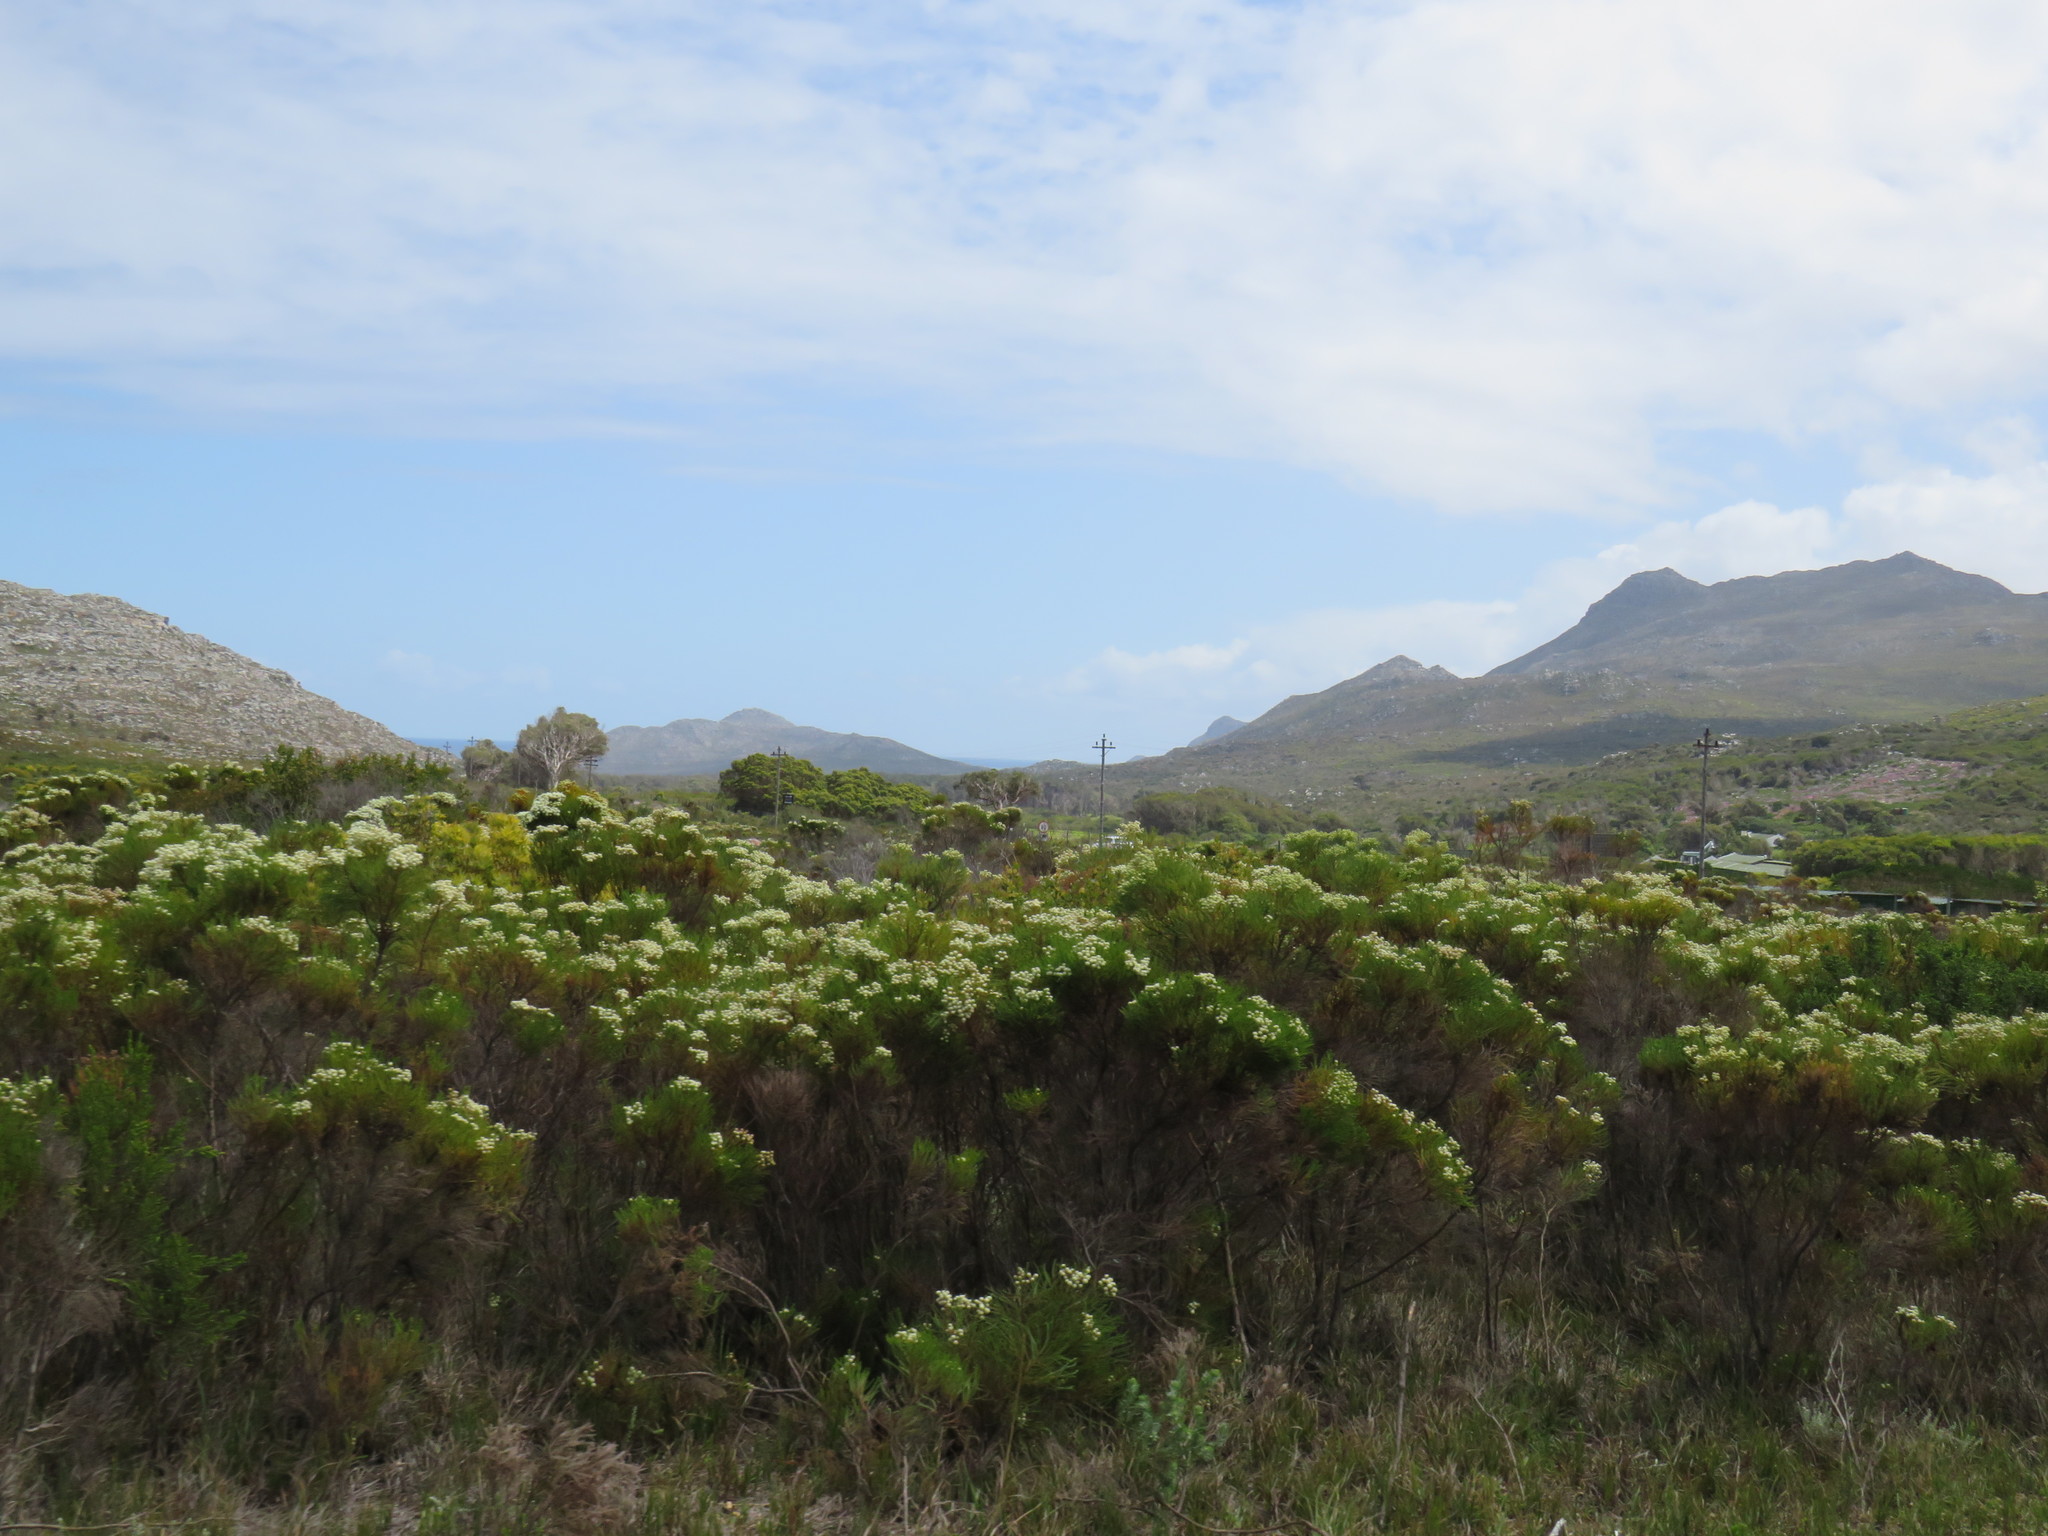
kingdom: Plantae
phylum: Tracheophyta
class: Magnoliopsida
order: Bruniales
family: Bruniaceae
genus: Berzelia
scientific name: Berzelia lanuginosa
